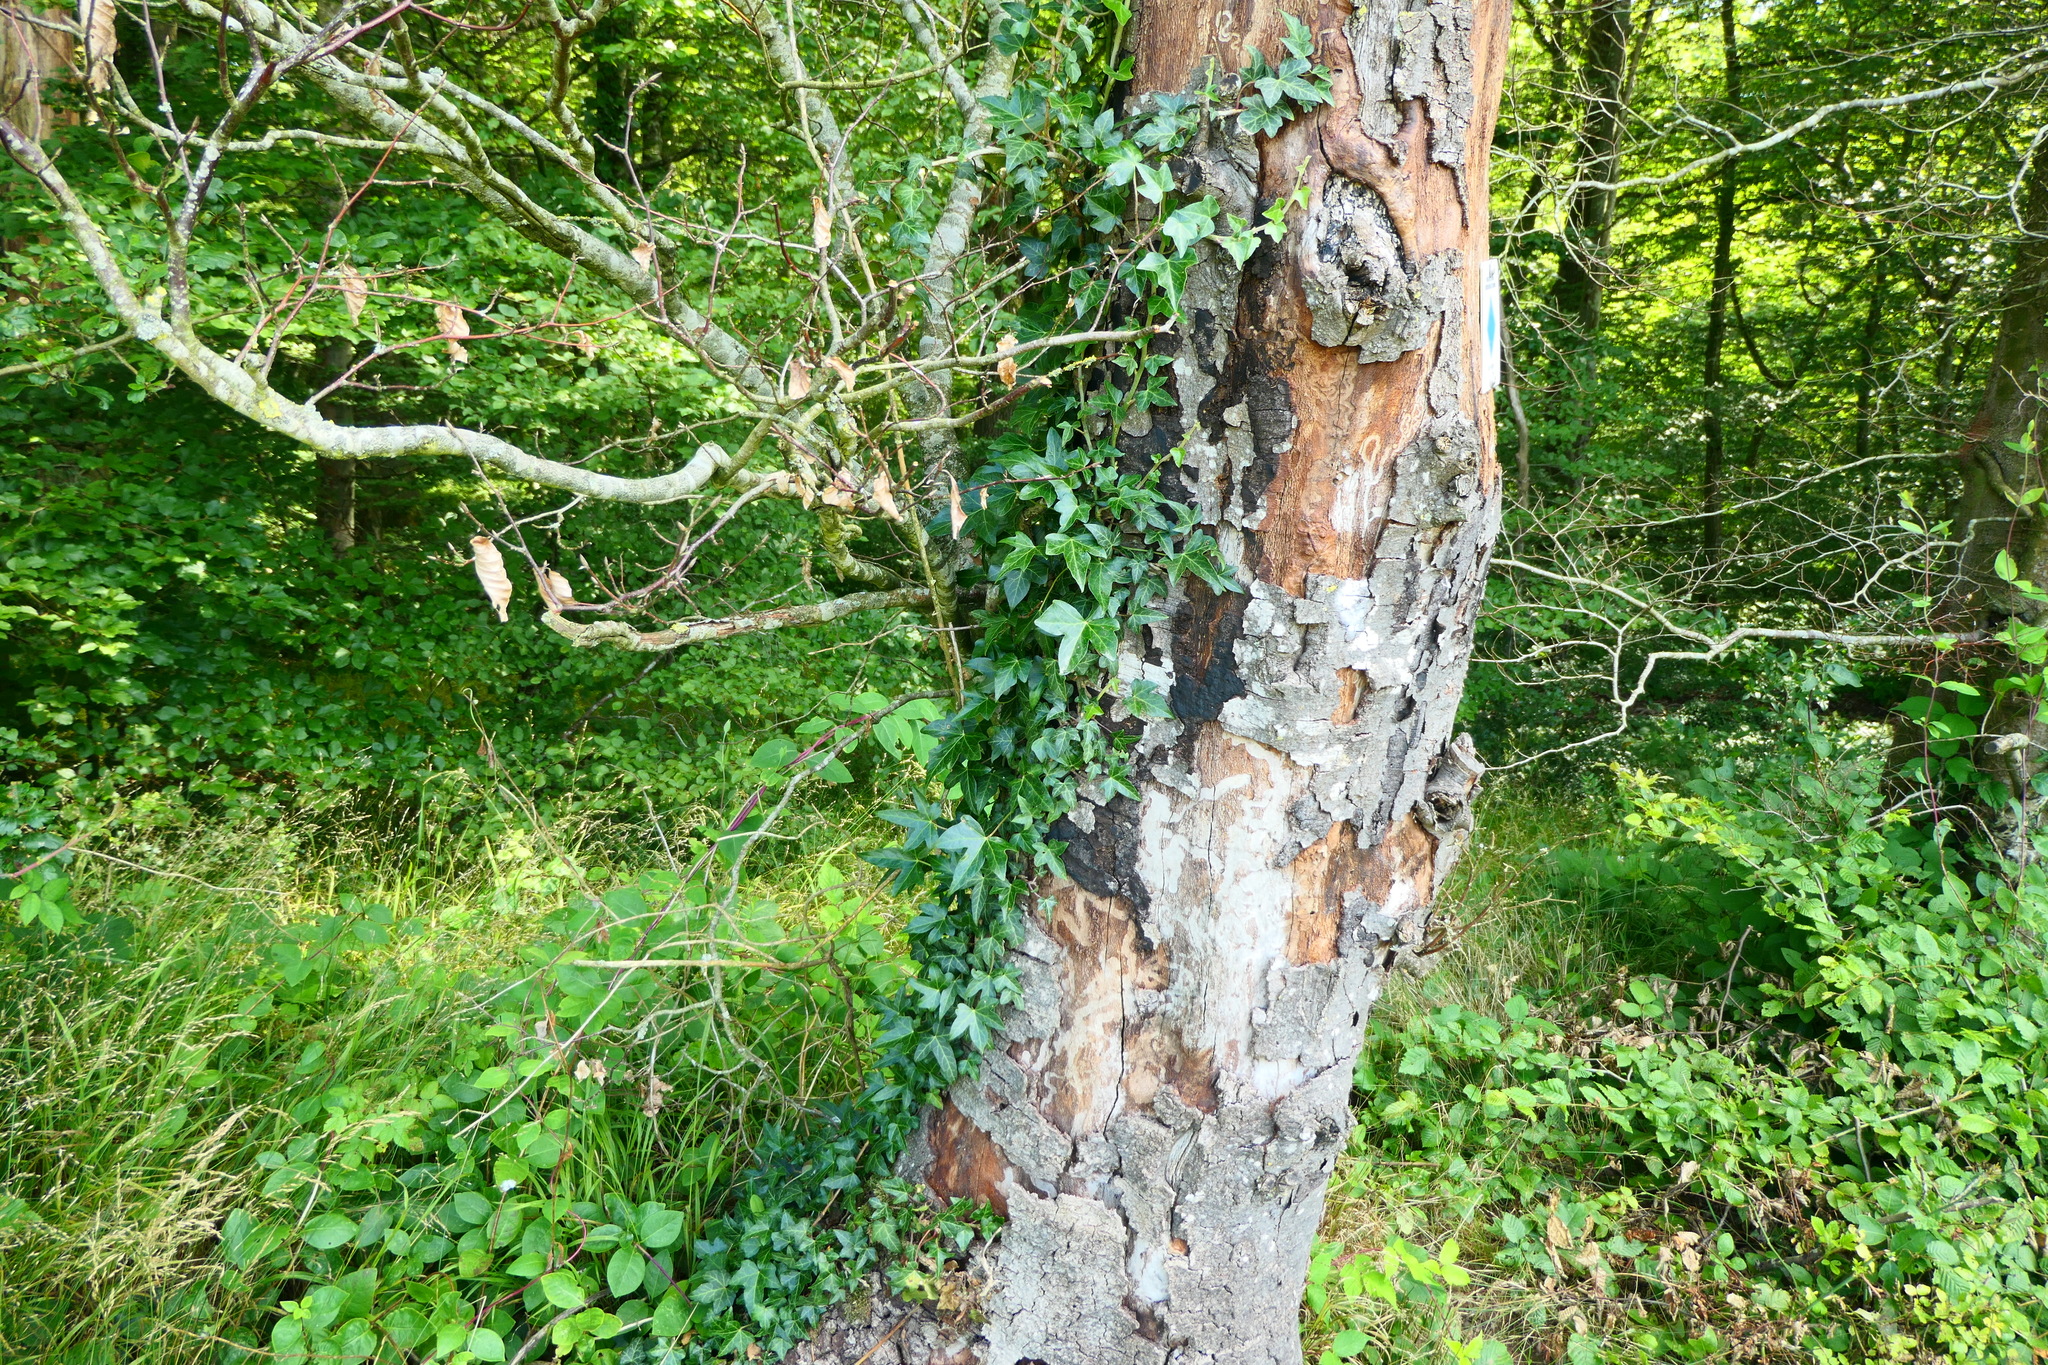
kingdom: Plantae
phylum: Tracheophyta
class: Magnoliopsida
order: Apiales
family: Araliaceae
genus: Hedera
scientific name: Hedera helix
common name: Ivy
